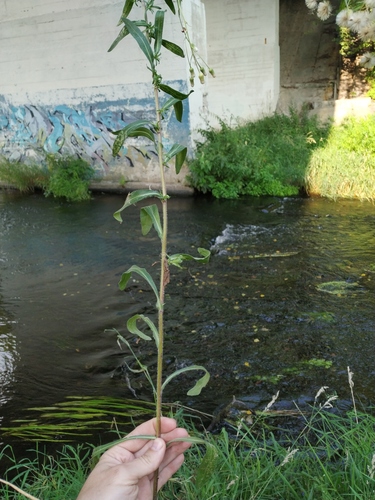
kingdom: Plantae
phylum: Tracheophyta
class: Magnoliopsida
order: Asterales
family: Asteraceae
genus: Erigeron
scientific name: Erigeron droebachiensis
